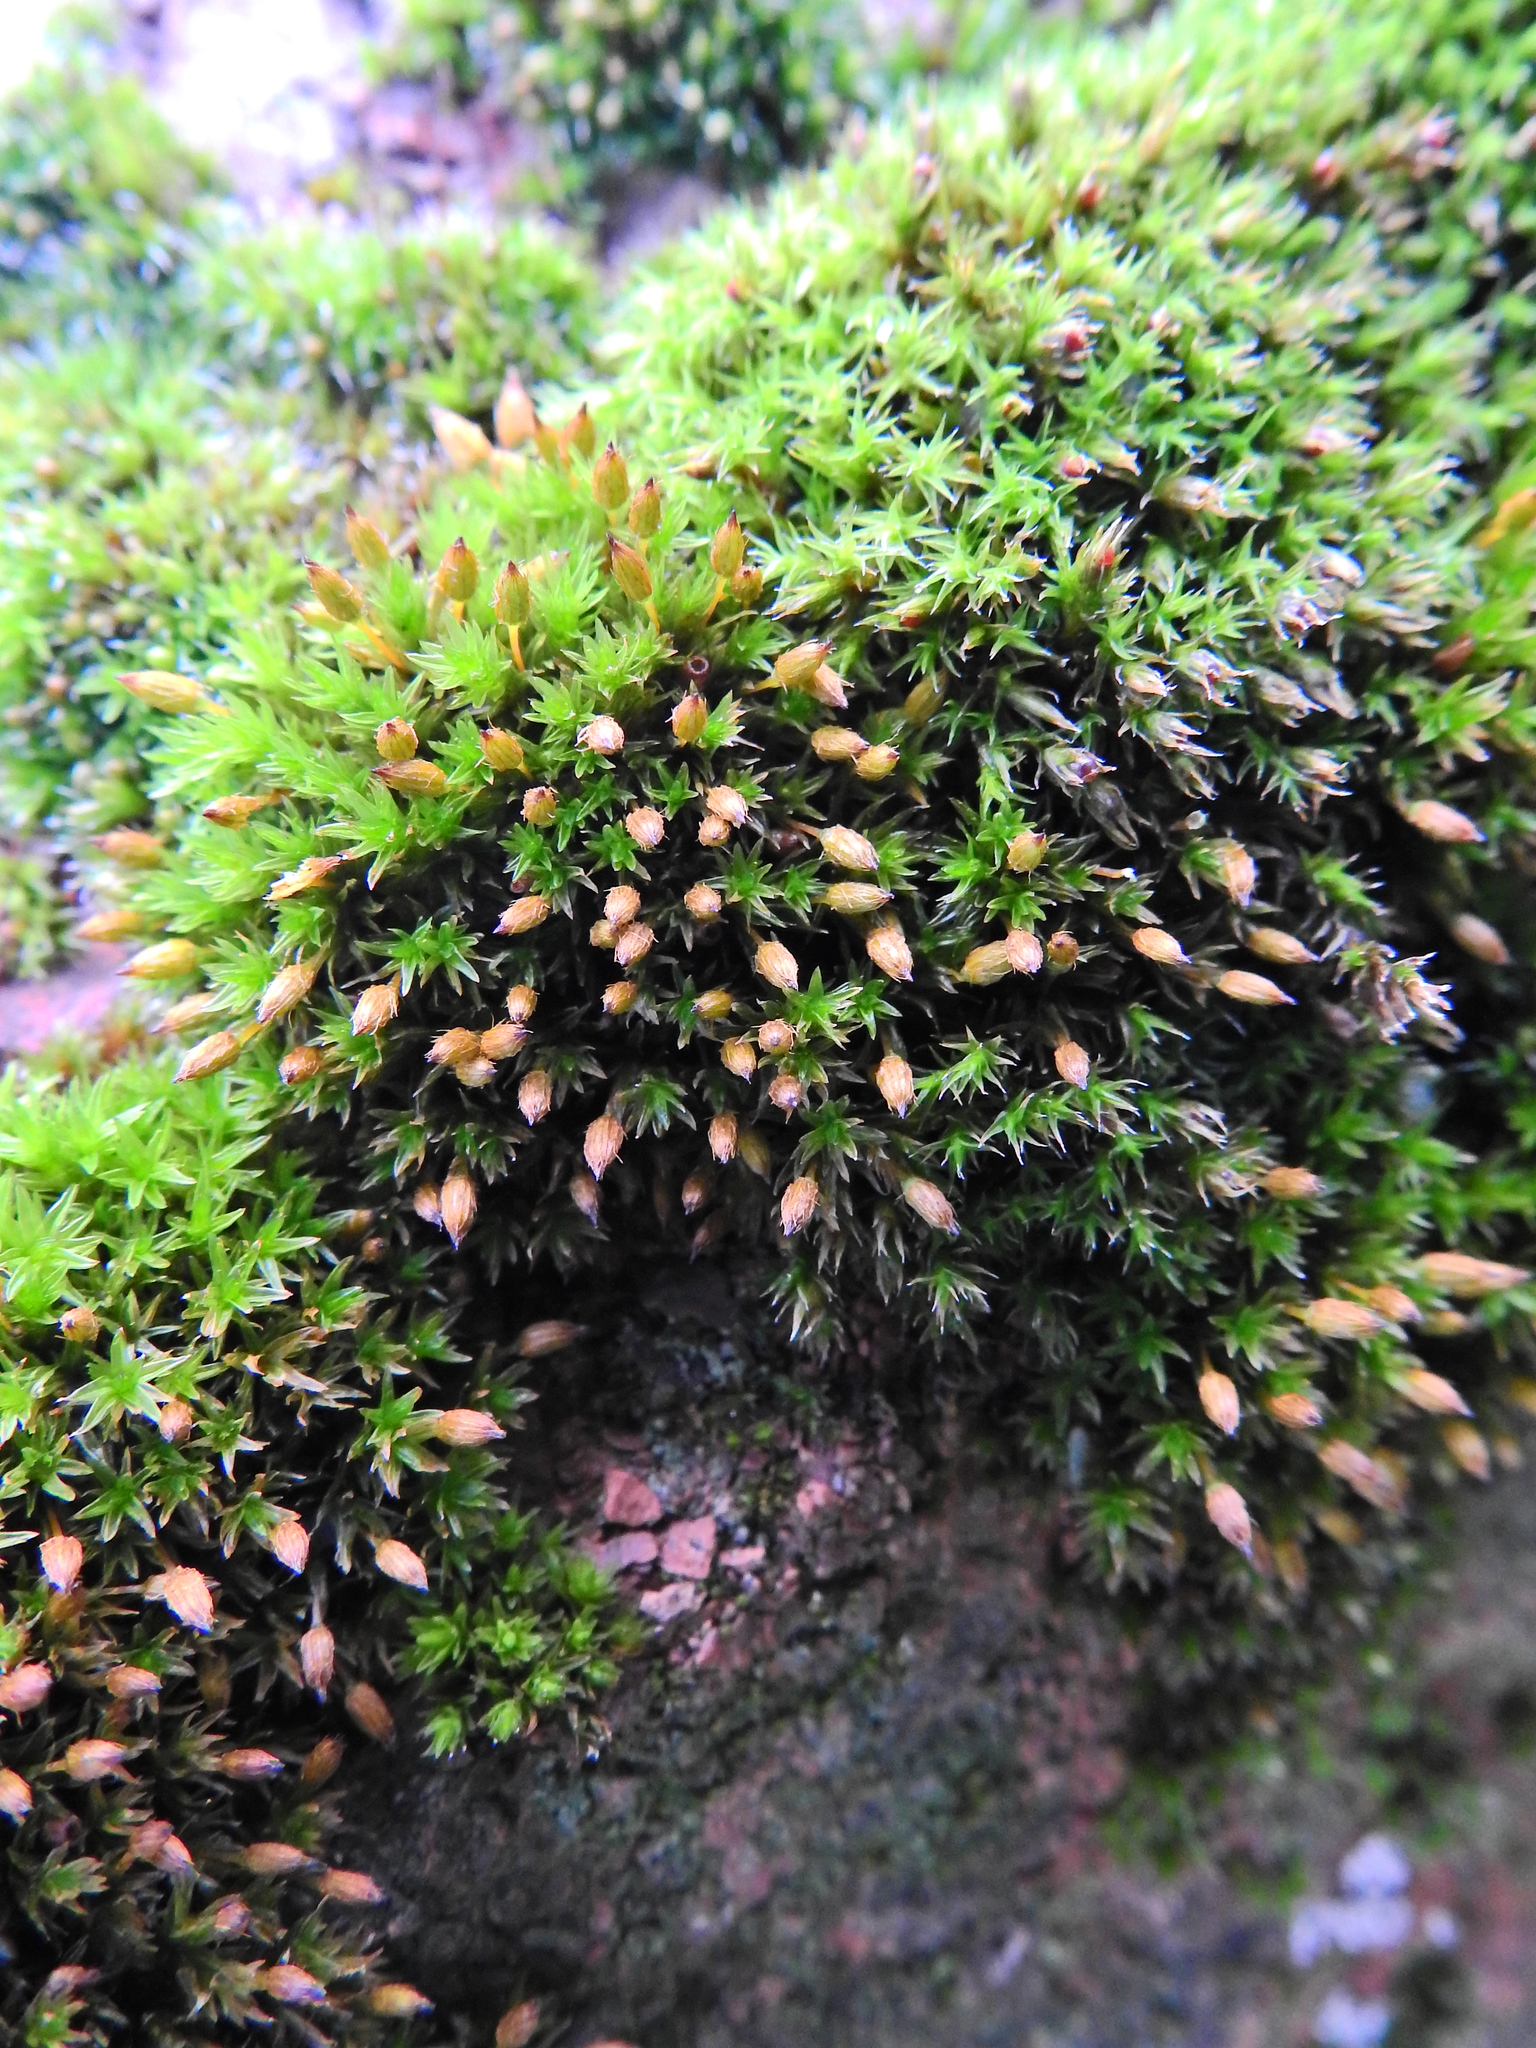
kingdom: Plantae
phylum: Bryophyta
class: Bryopsida
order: Orthotrichales
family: Orthotrichaceae
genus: Orthotrichum
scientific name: Orthotrichum anomalum
